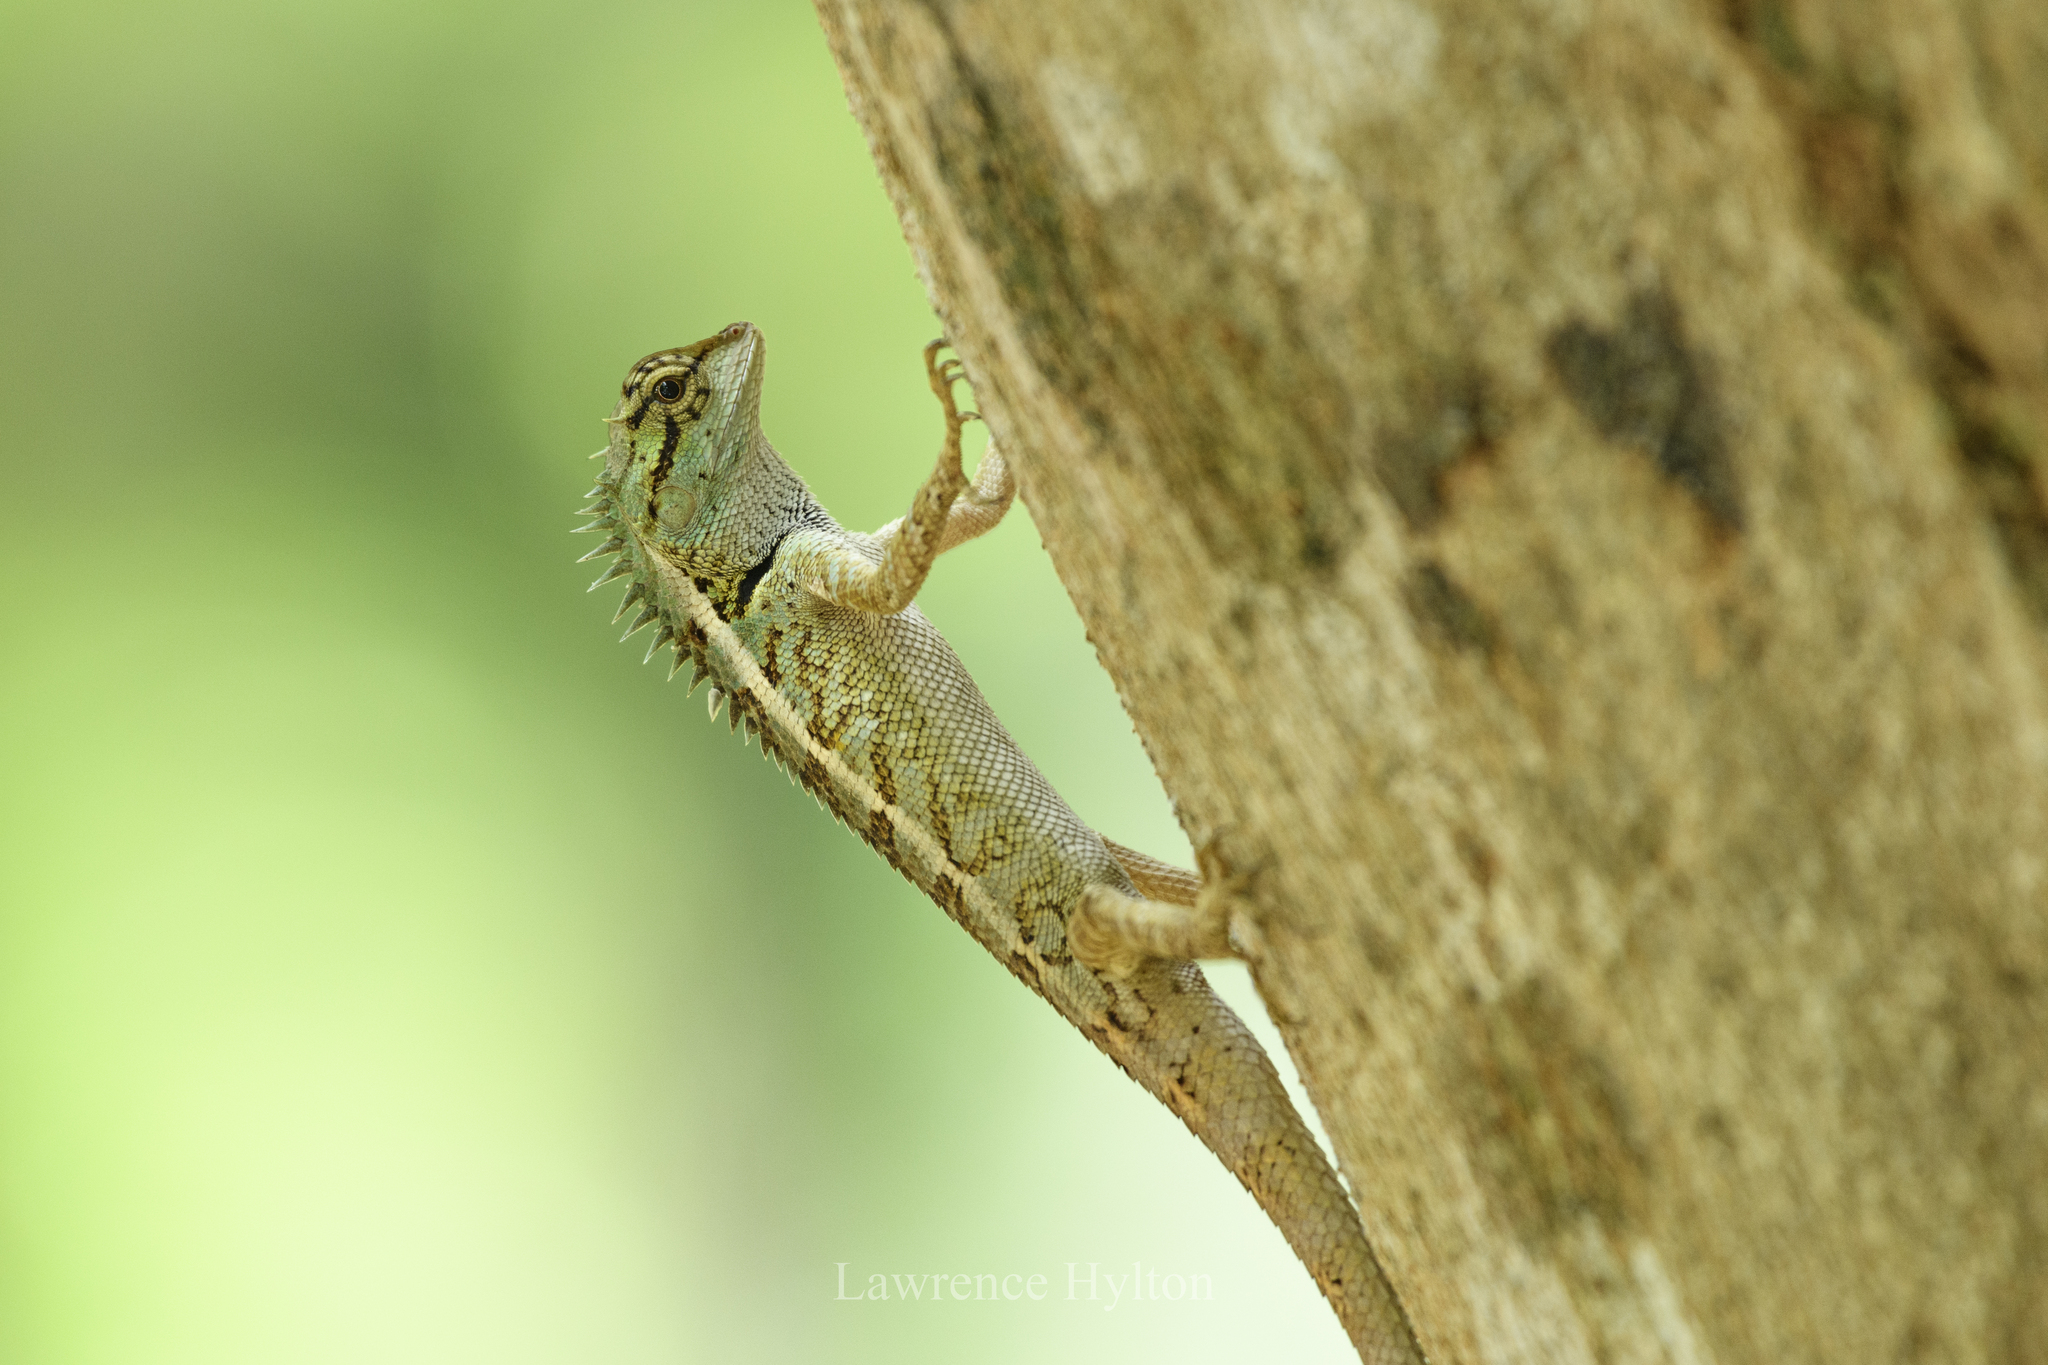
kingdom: Animalia
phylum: Chordata
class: Squamata
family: Agamidae
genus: Calotes
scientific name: Calotes emma
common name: Thailand bloodsucker
